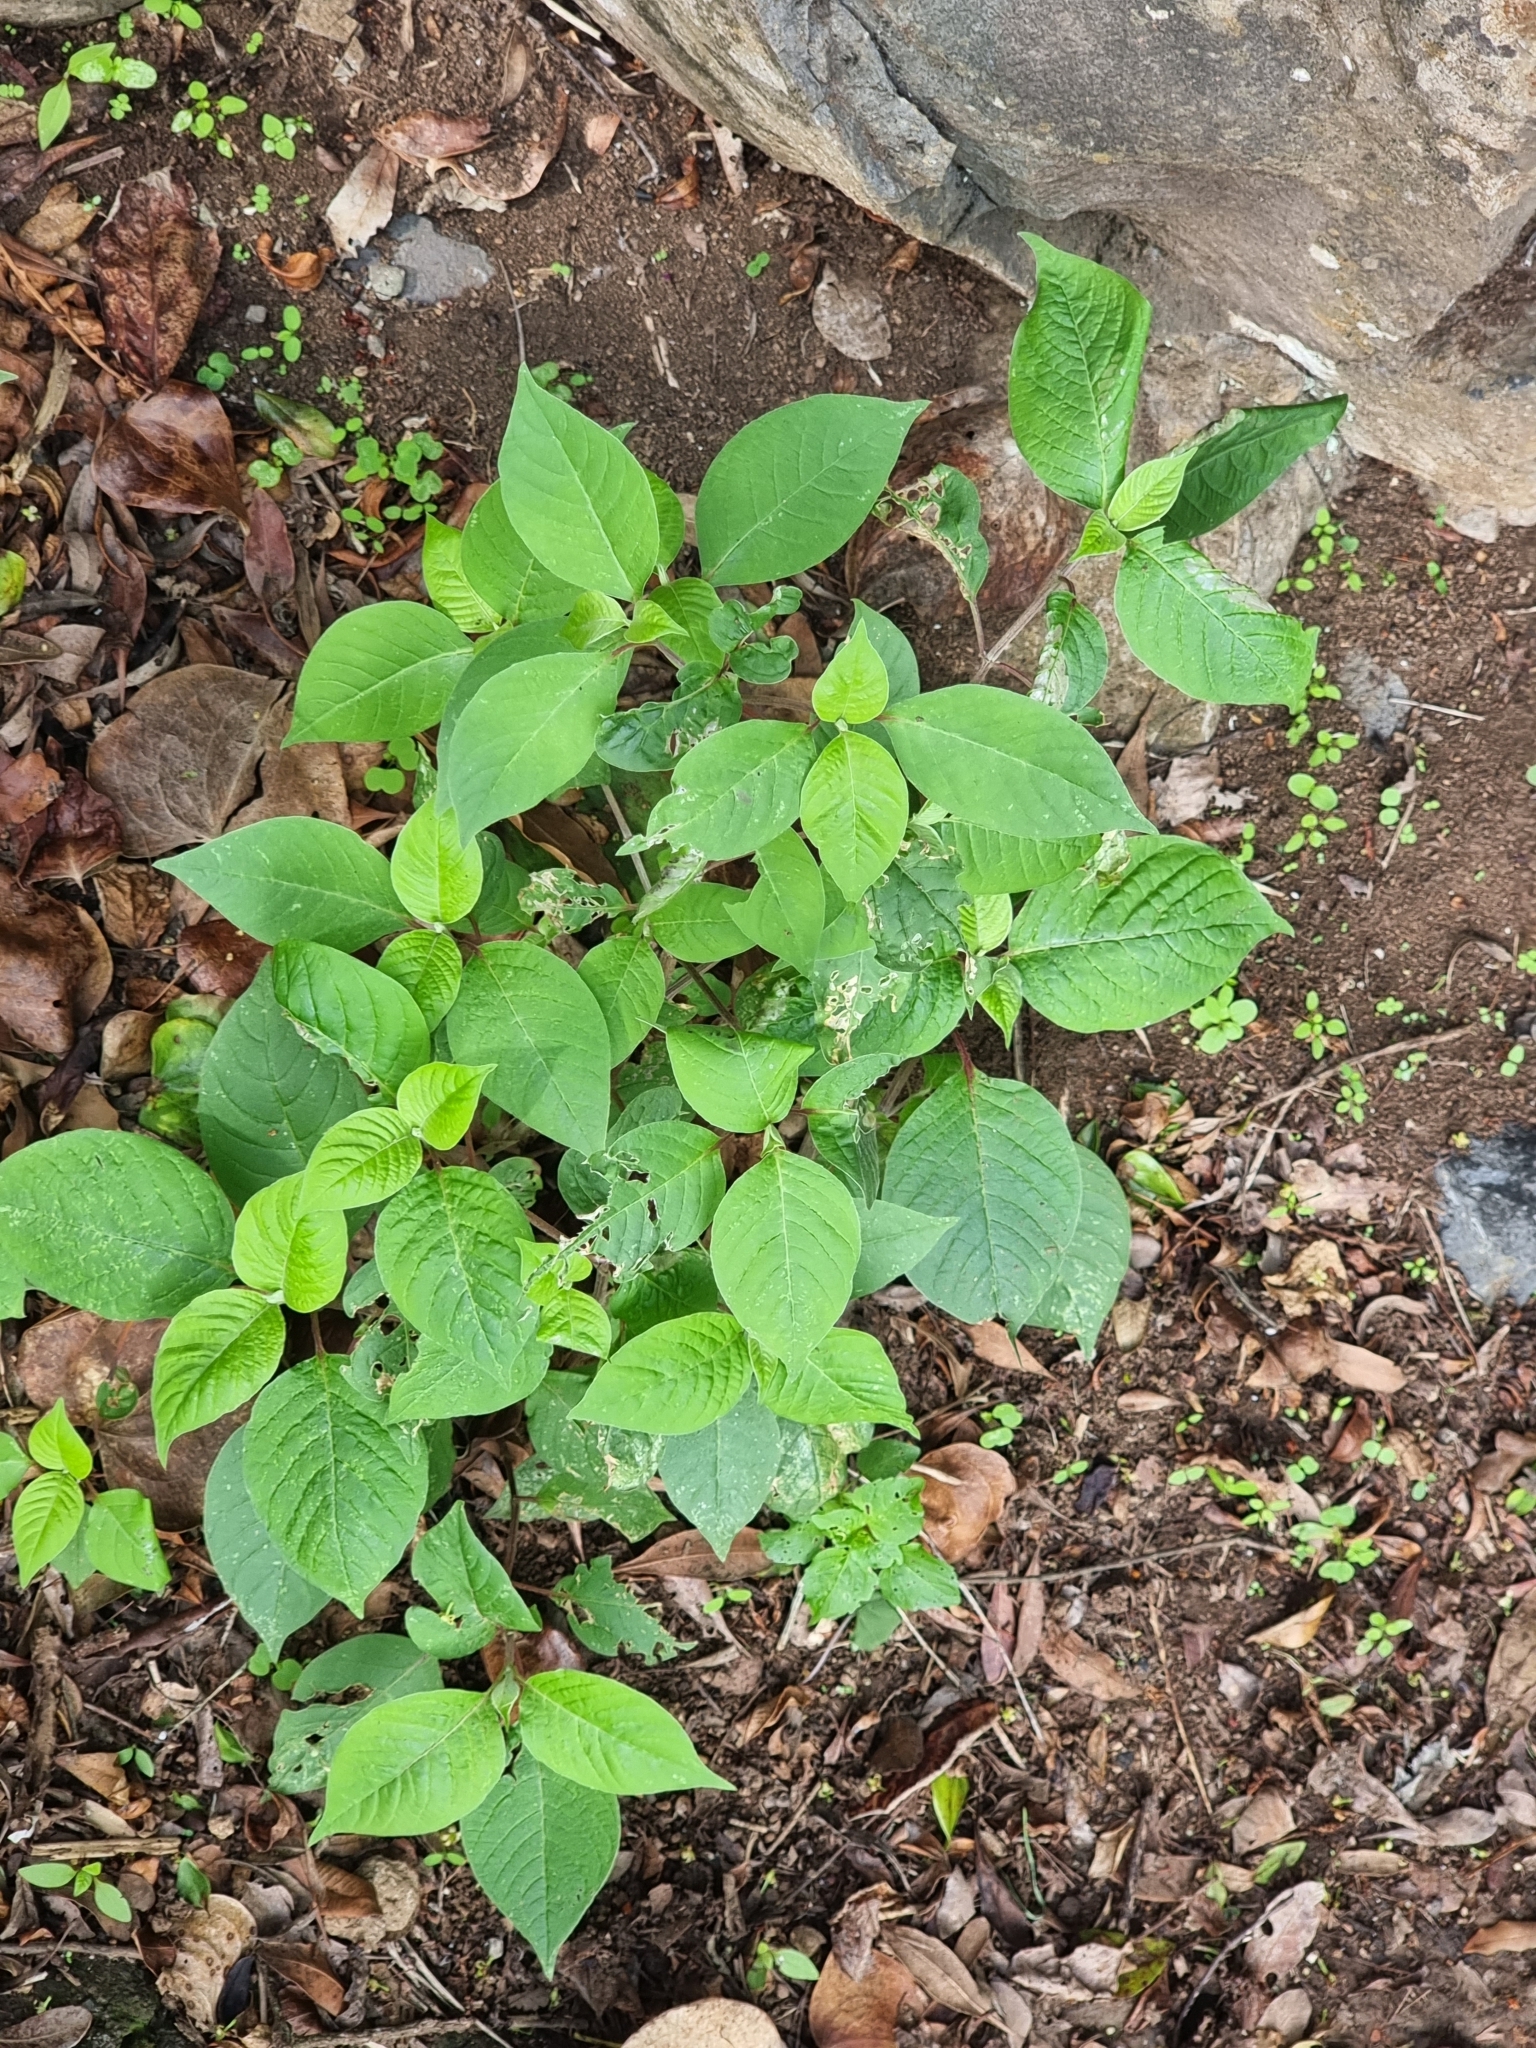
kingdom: Plantae
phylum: Tracheophyta
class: Magnoliopsida
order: Caryophyllales
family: Amaranthaceae
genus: Achyranthes
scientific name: Achyranthes aspera
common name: Devil's horsewhip
